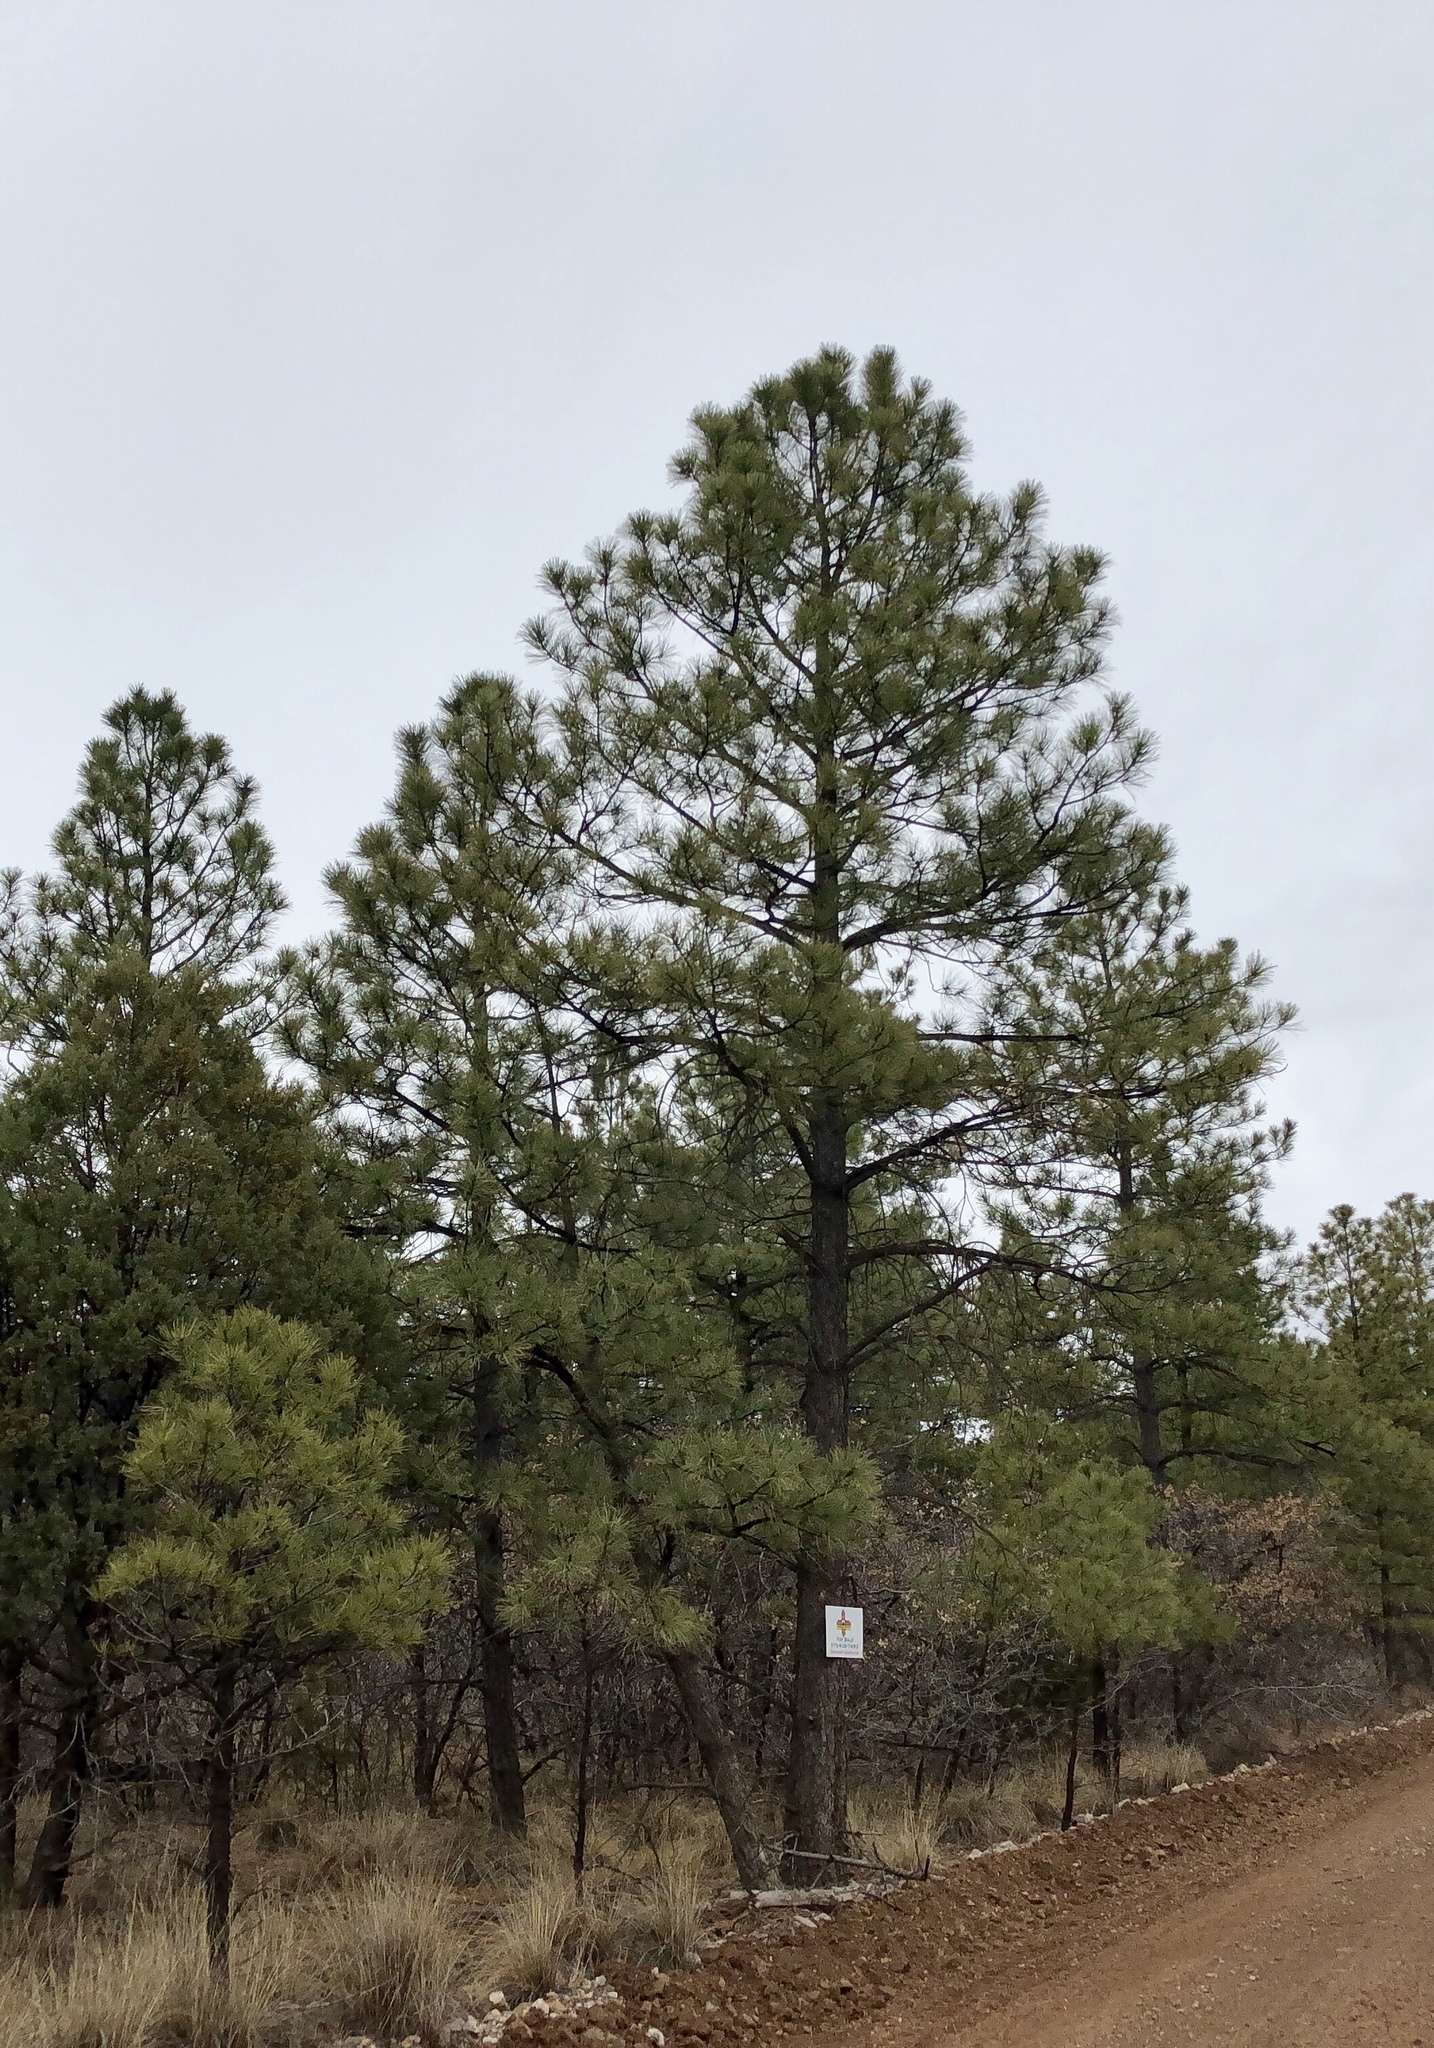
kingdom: Plantae
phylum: Tracheophyta
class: Pinopsida
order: Pinales
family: Pinaceae
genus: Pinus
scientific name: Pinus ponderosa
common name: Western yellow-pine
